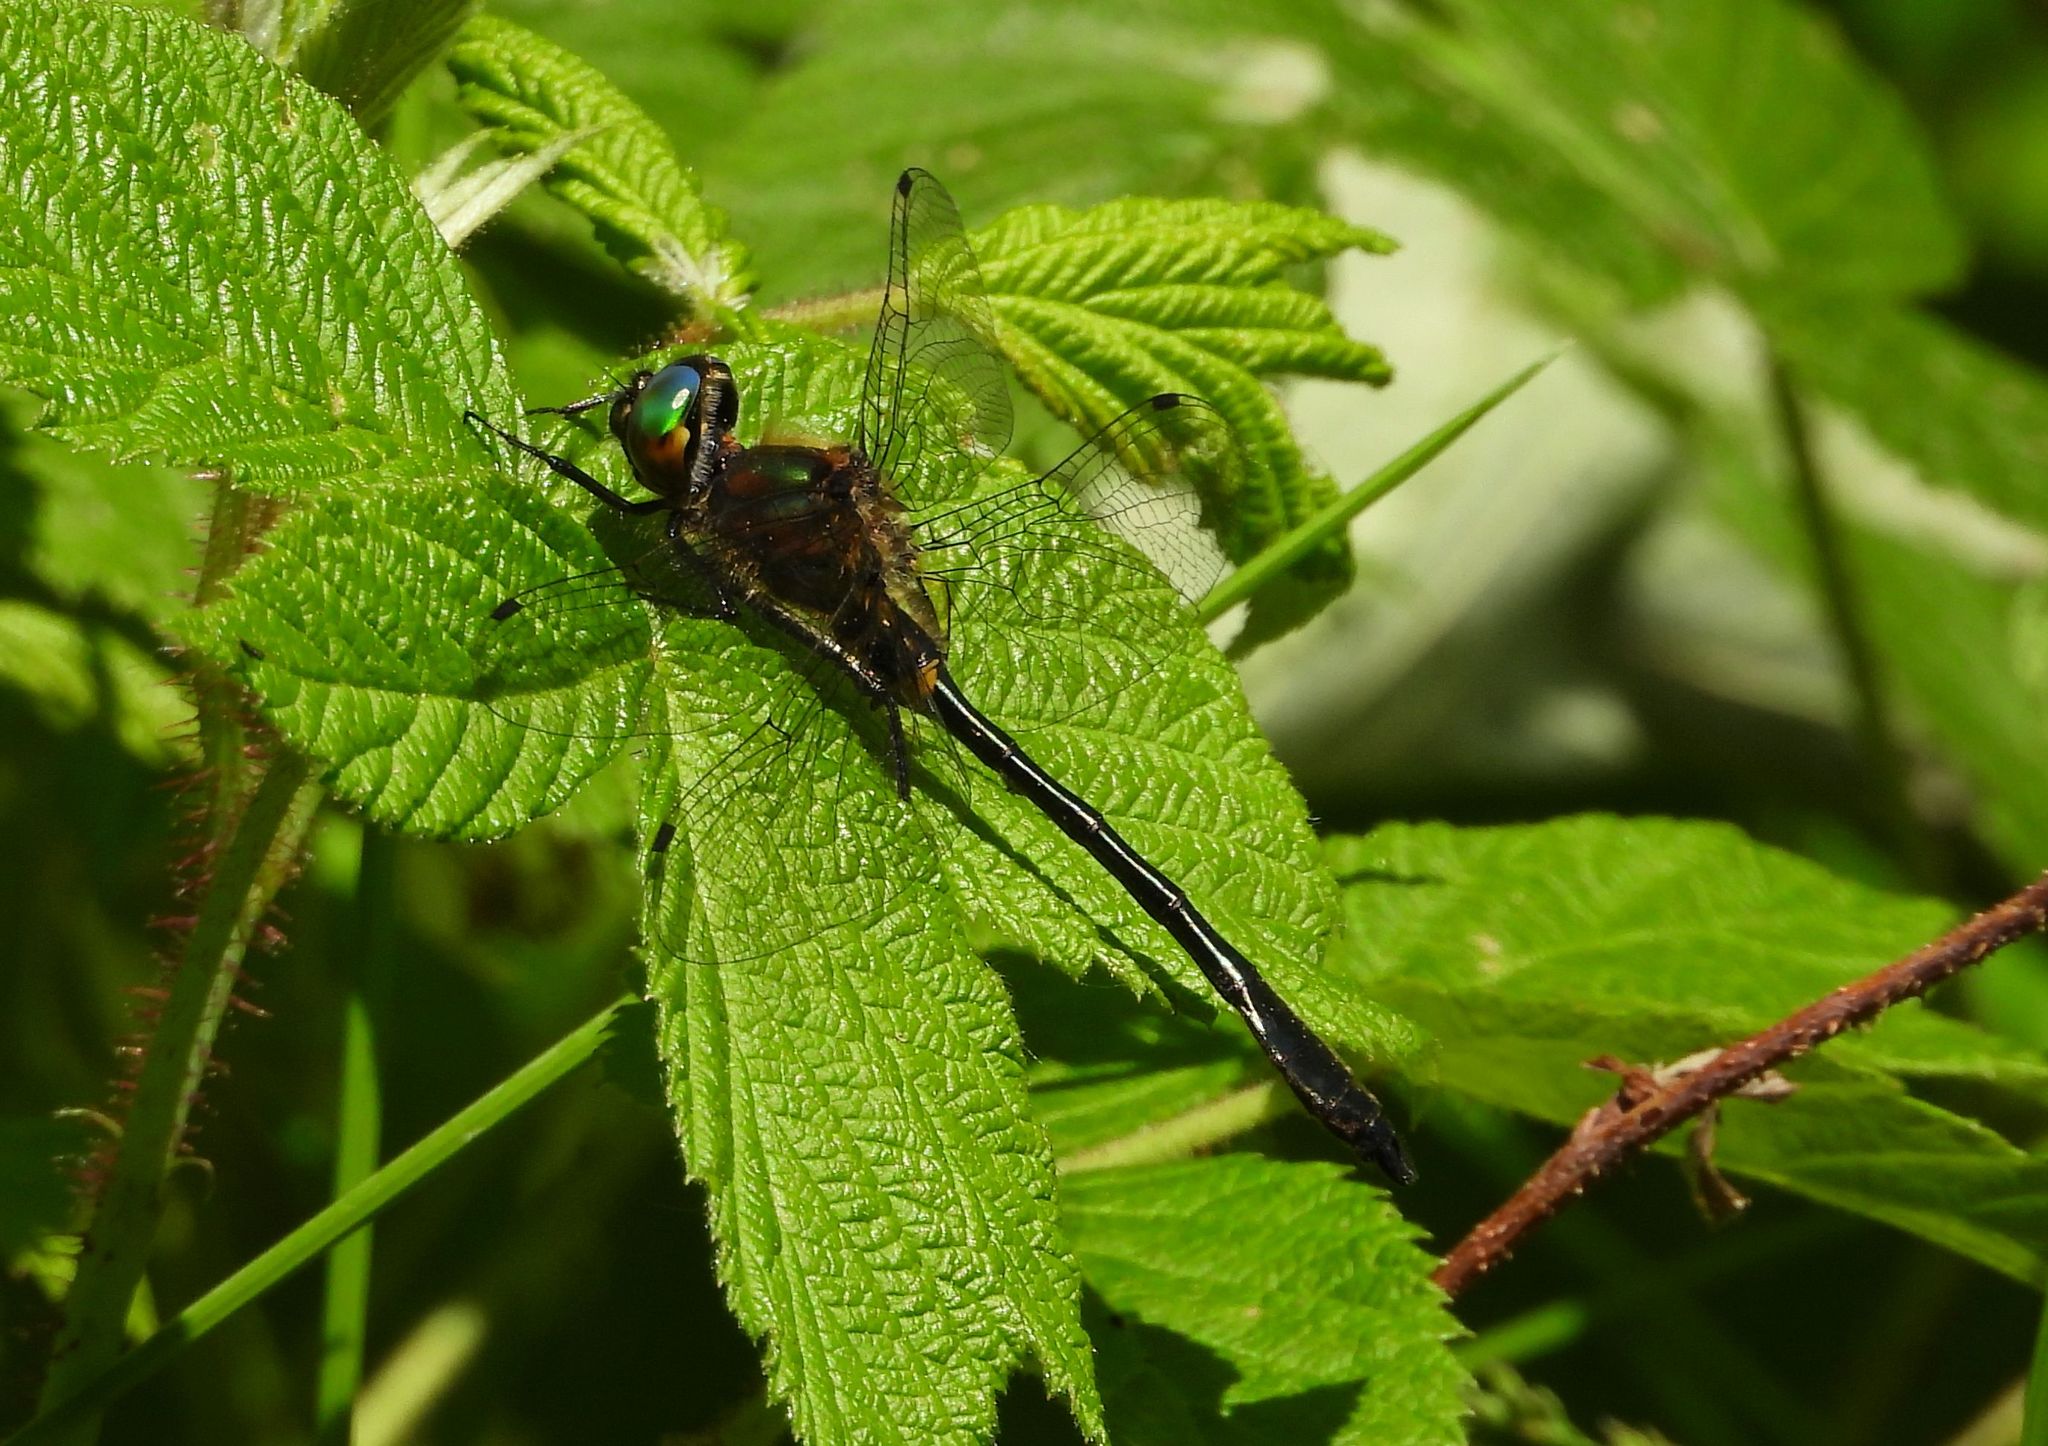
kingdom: Animalia
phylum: Arthropoda
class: Insecta
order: Odonata
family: Corduliidae
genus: Dorocordulia
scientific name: Dorocordulia libera
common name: Racket-tailed emerald
